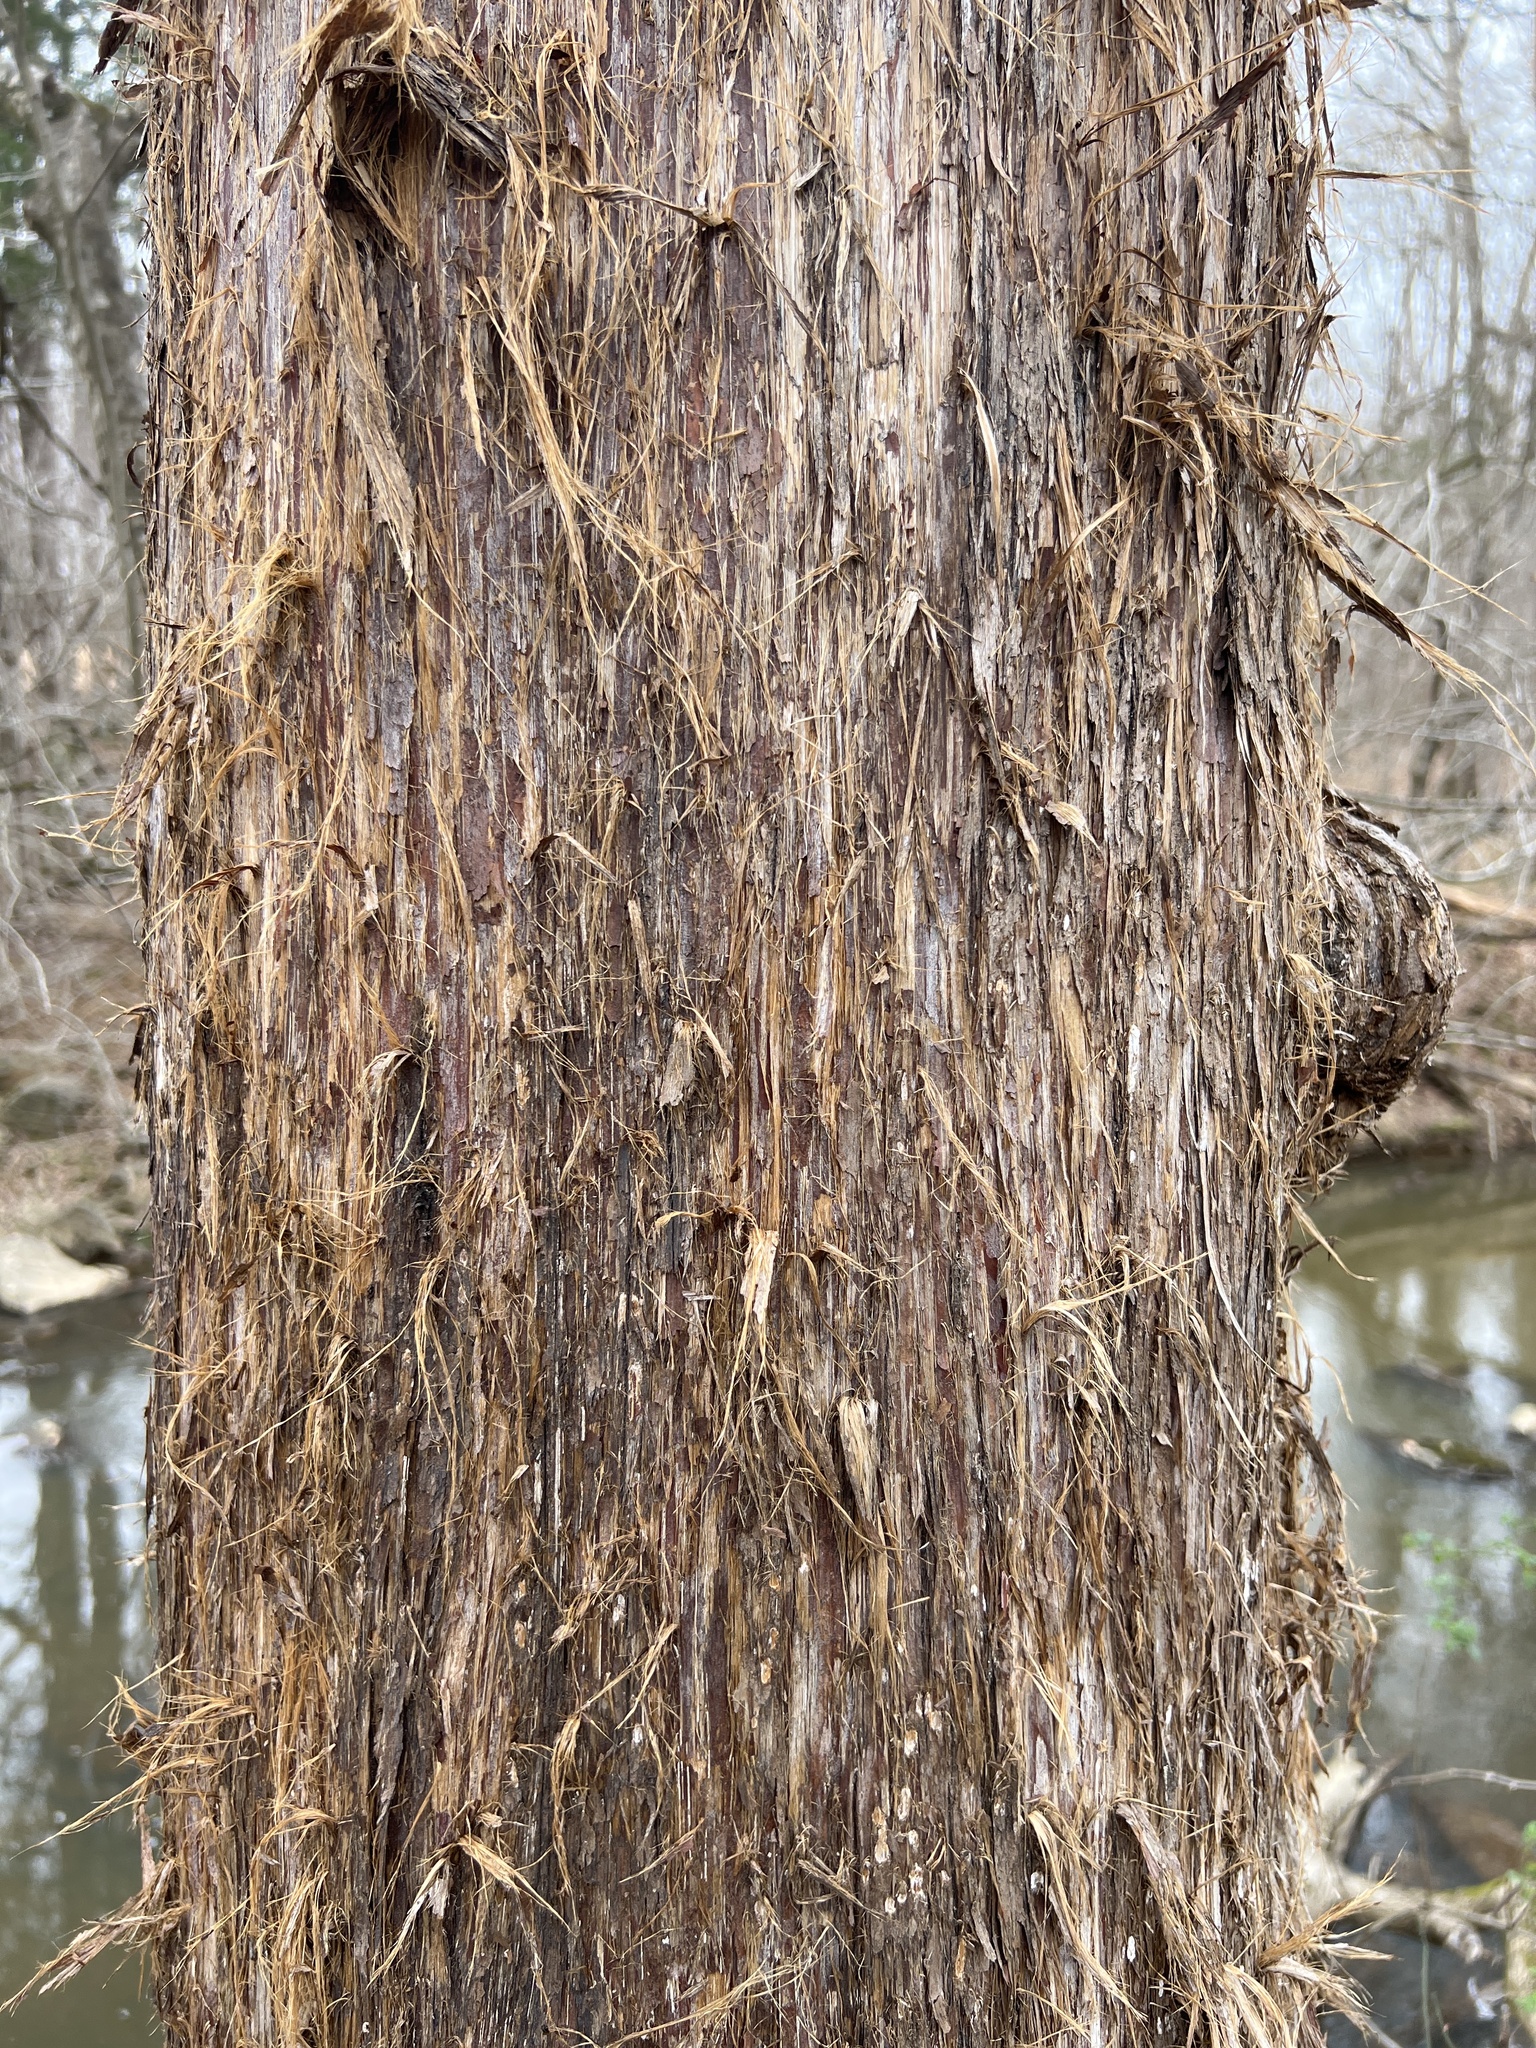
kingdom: Plantae
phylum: Tracheophyta
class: Pinopsida
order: Pinales
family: Cupressaceae
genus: Juniperus
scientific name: Juniperus virginiana
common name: Red juniper
